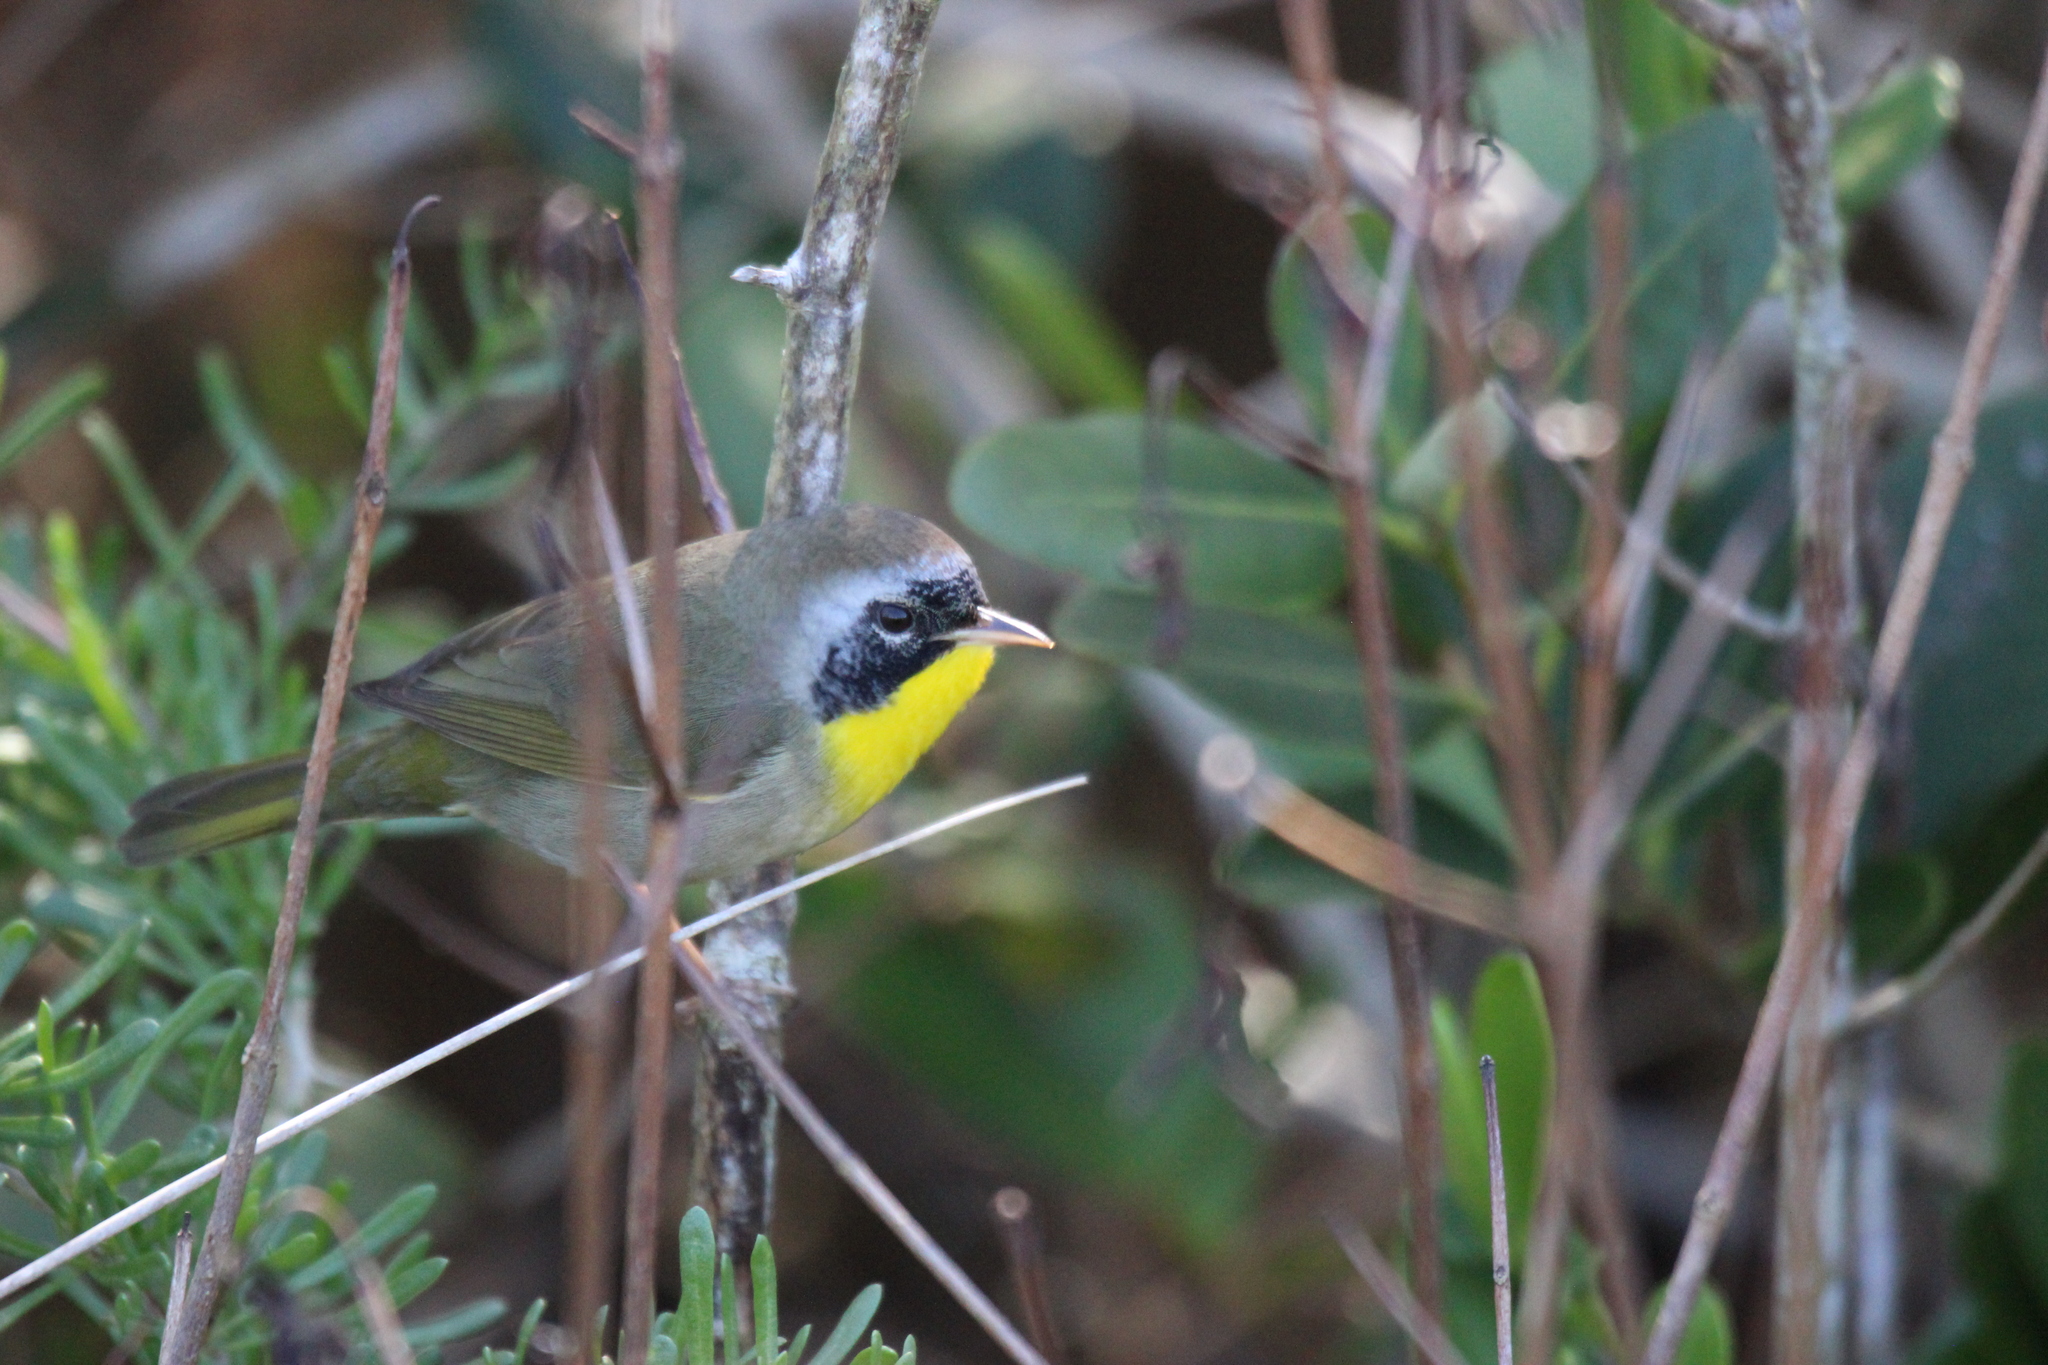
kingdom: Animalia
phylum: Chordata
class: Aves
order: Passeriformes
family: Parulidae
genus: Geothlypis
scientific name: Geothlypis trichas
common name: Common yellowthroat
